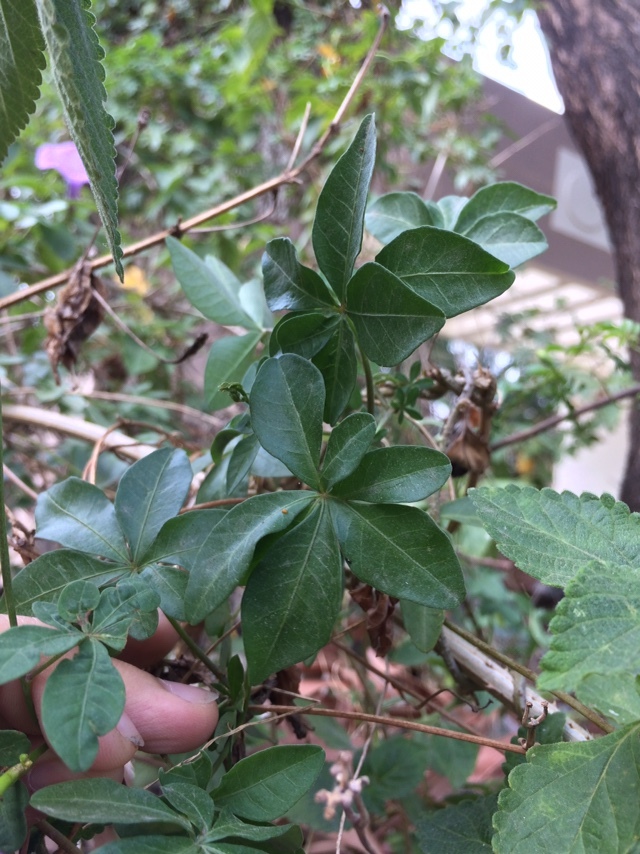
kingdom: Plantae
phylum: Tracheophyta
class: Magnoliopsida
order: Solanales
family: Convolvulaceae
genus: Ipomoea
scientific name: Ipomoea cairica
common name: Mile a minute vine
